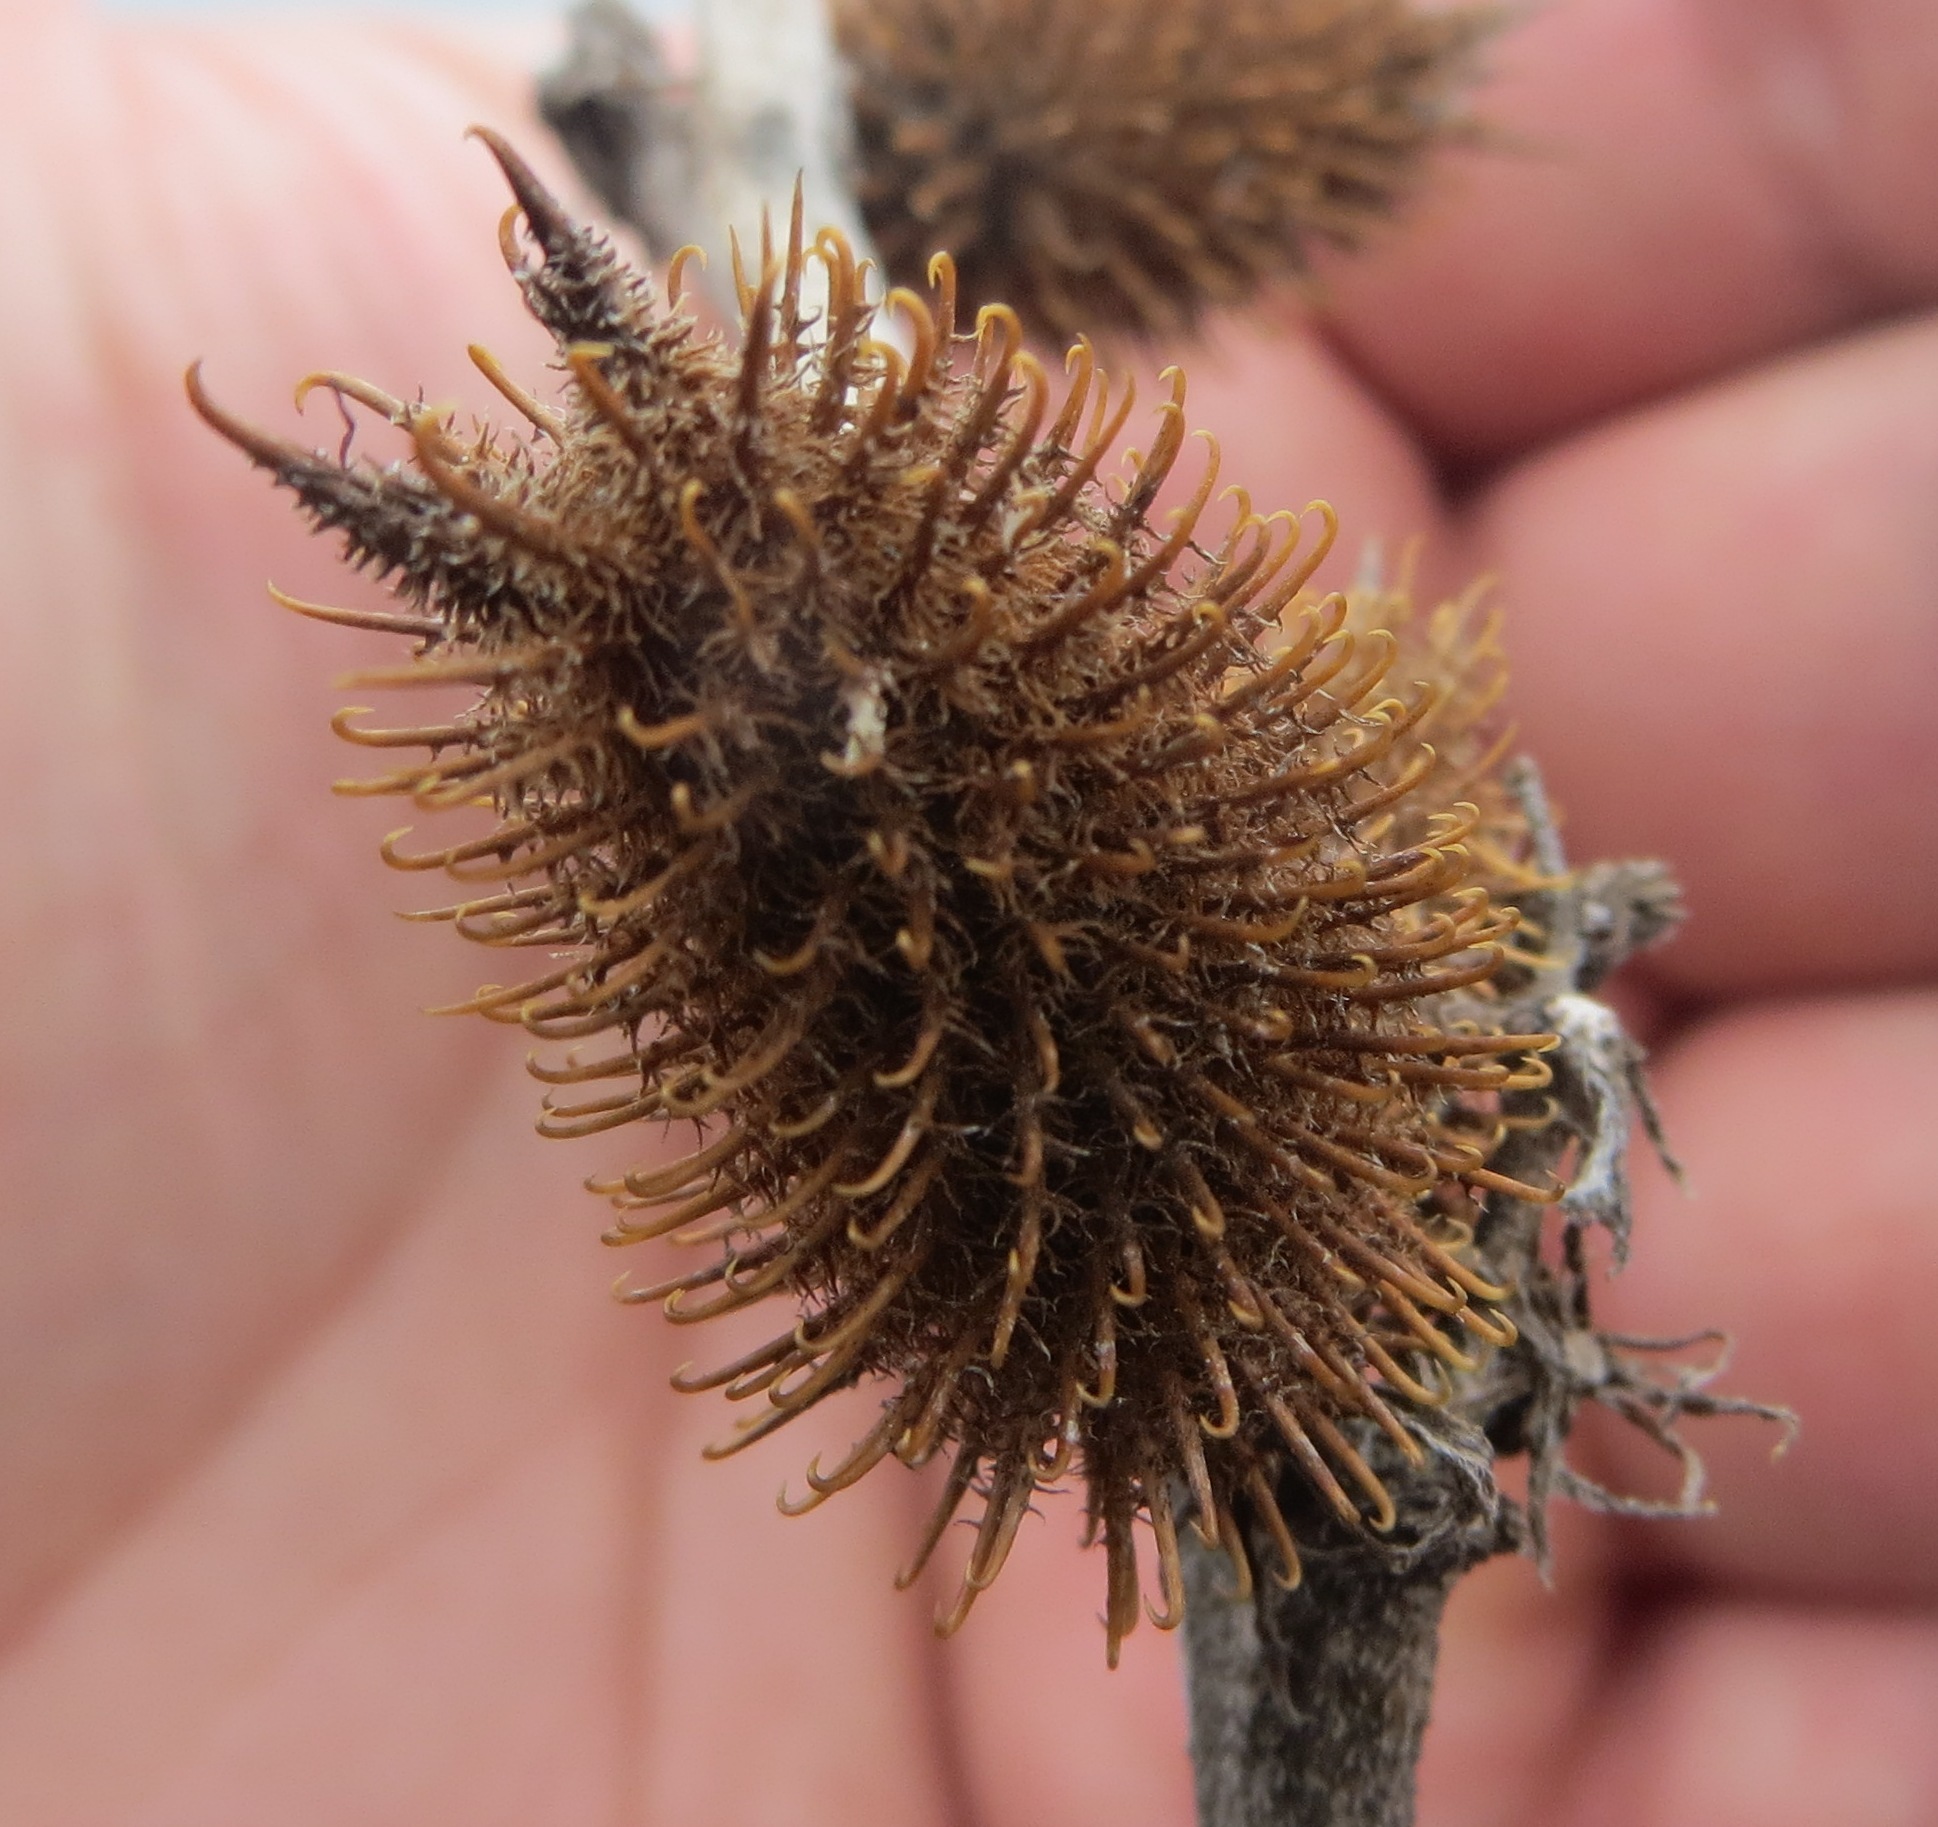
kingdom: Plantae
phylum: Tracheophyta
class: Magnoliopsida
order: Asterales
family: Asteraceae
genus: Xanthium
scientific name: Xanthium strumarium
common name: Rough cocklebur
